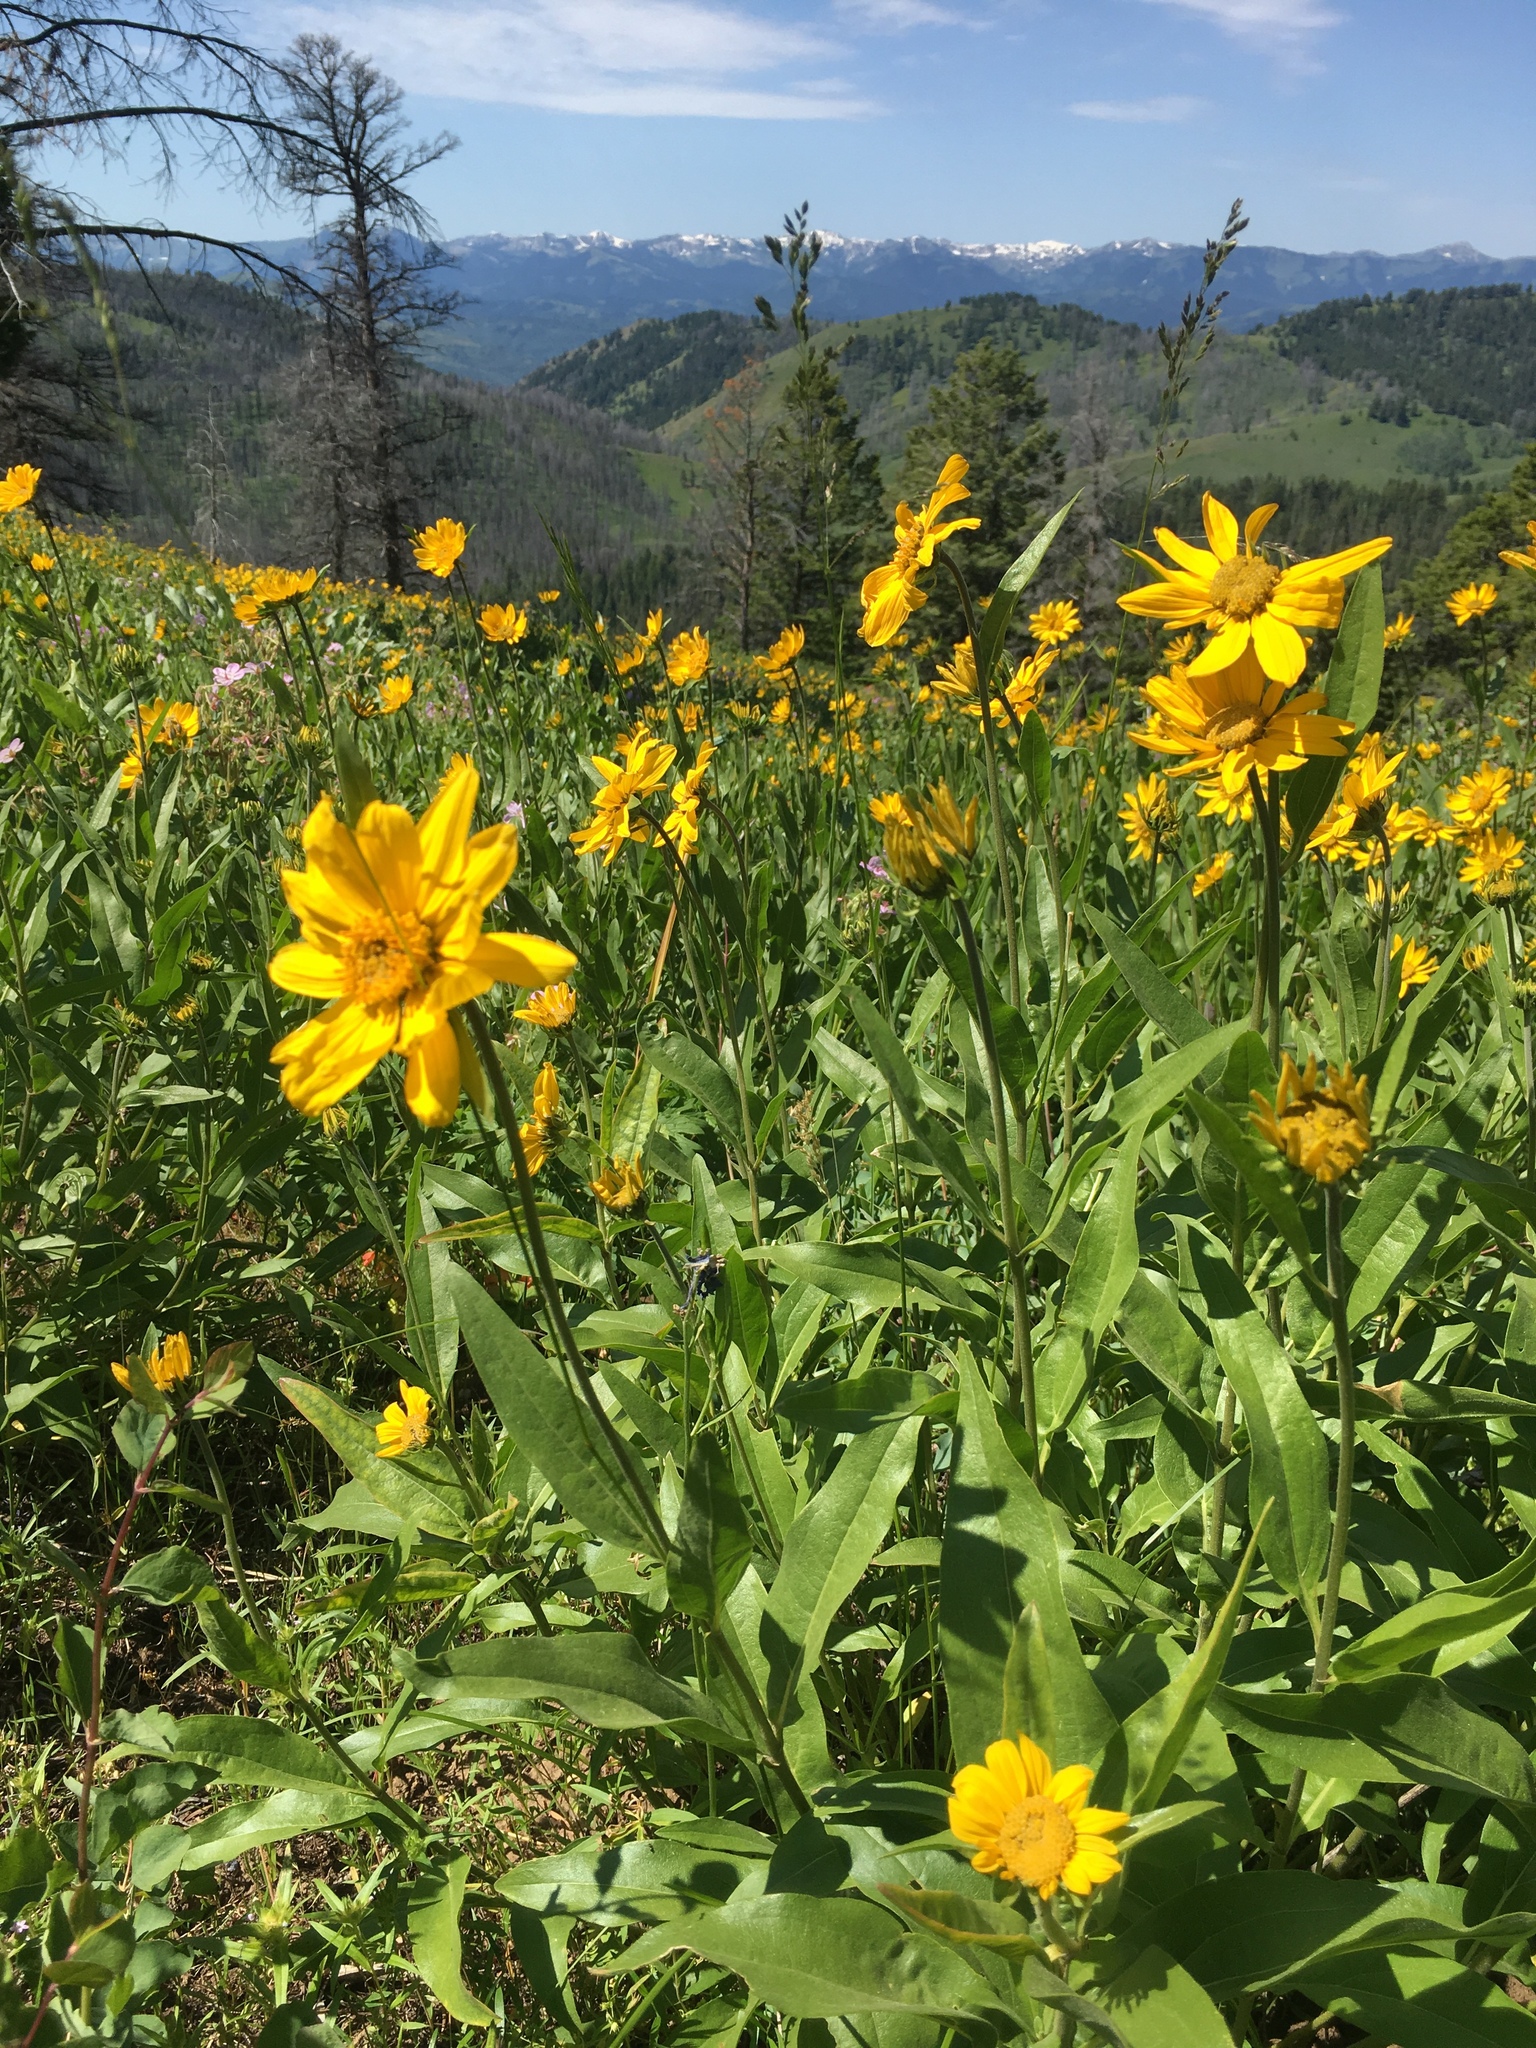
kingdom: Plantae
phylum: Tracheophyta
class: Magnoliopsida
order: Asterales
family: Asteraceae
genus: Helianthella
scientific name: Helianthella uniflora
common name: Rocky mountain dwarf sunflower
